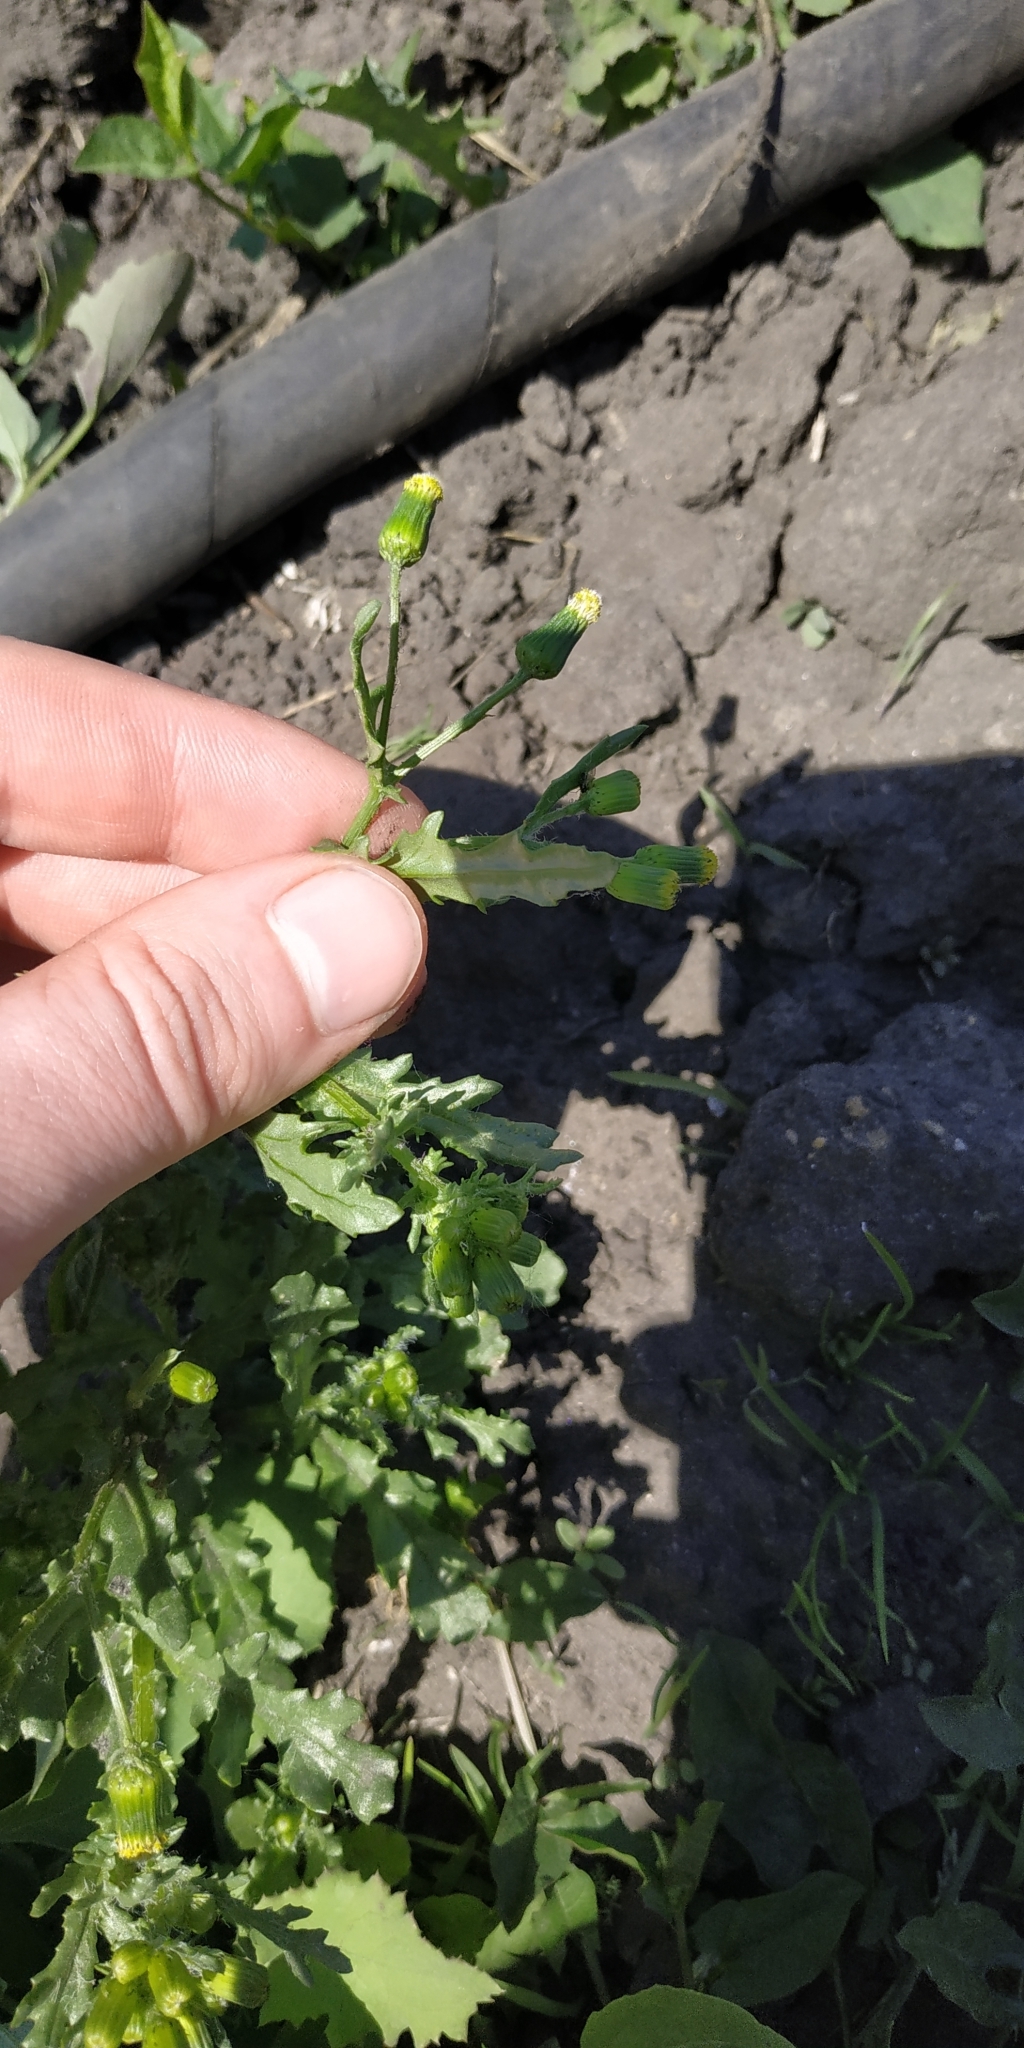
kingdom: Plantae
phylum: Tracheophyta
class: Magnoliopsida
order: Asterales
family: Asteraceae
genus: Senecio
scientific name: Senecio vulgaris
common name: Old-man-in-the-spring
